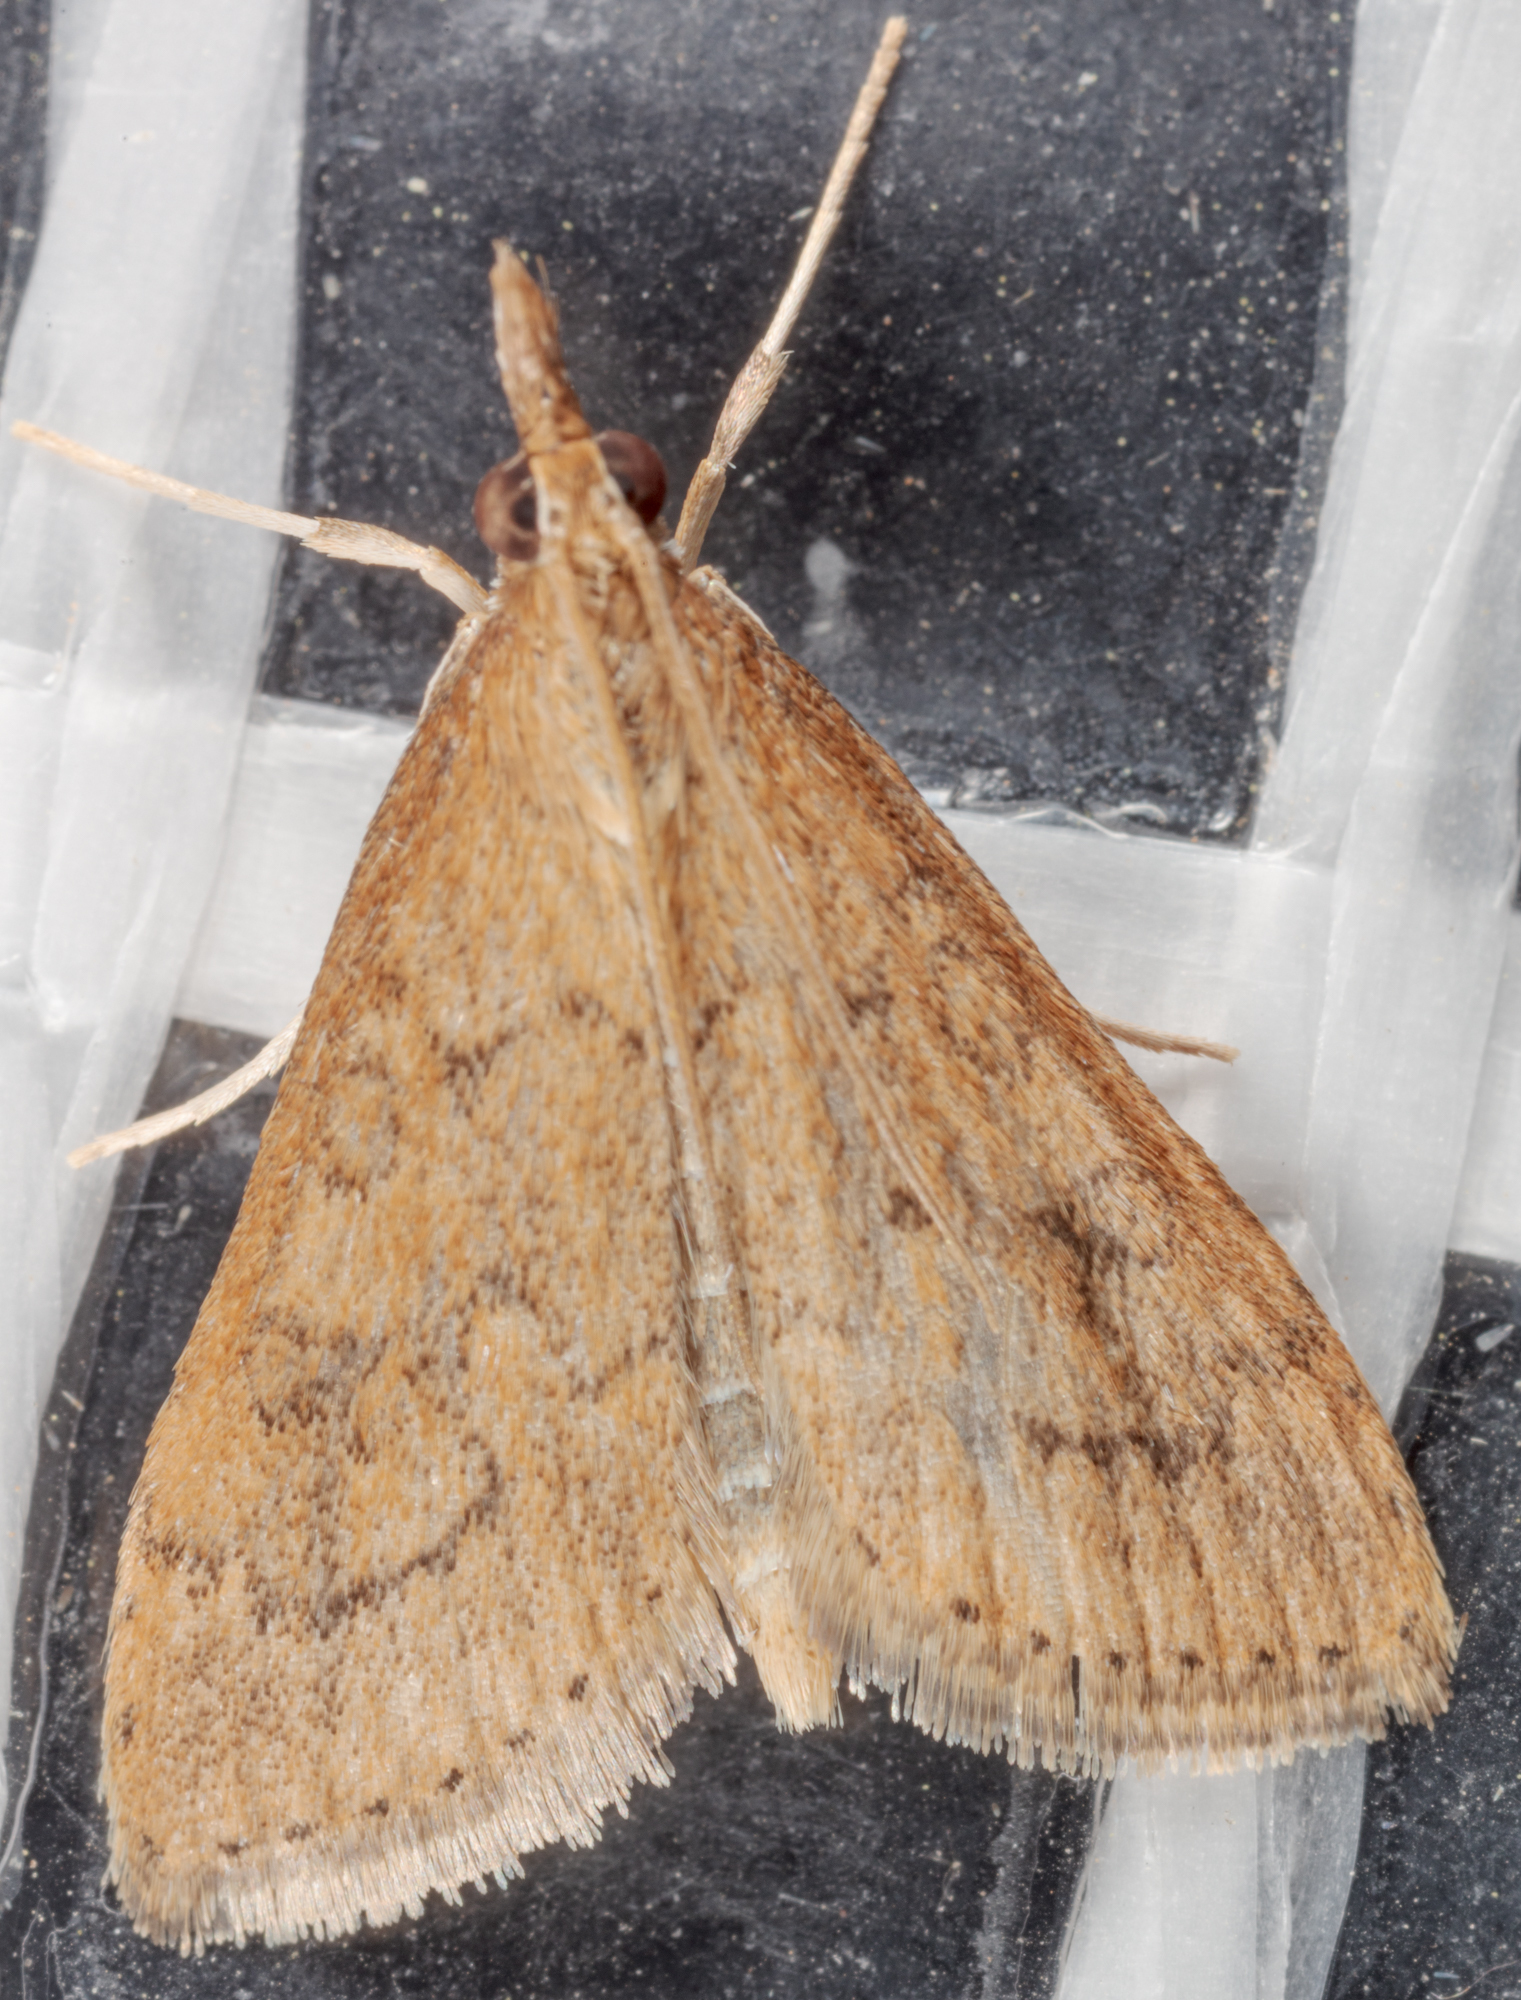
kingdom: Animalia
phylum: Arthropoda
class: Insecta
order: Lepidoptera
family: Crambidae
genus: Udea
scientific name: Udea rubigalis
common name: Celery leaftier moth
